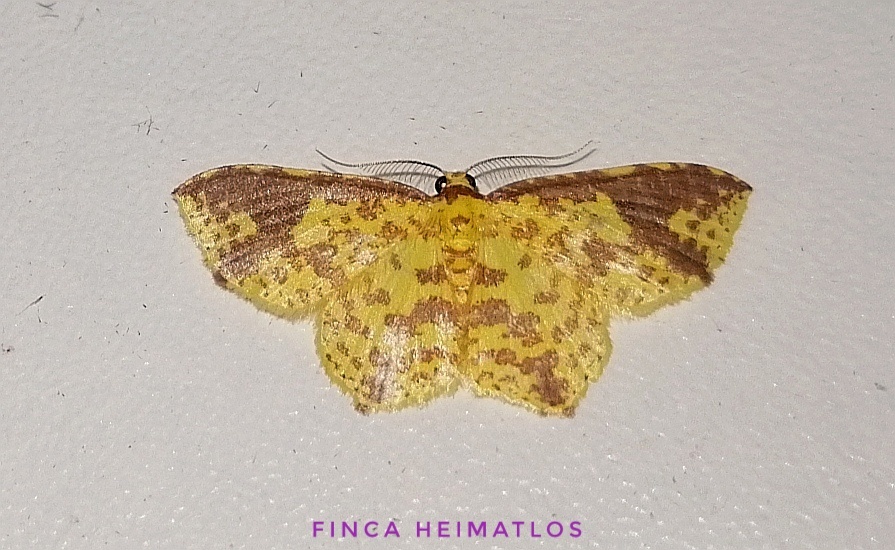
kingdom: Animalia
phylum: Arthropoda
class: Insecta
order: Lepidoptera
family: Geometridae
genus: Eois
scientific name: Eois heliadaria
